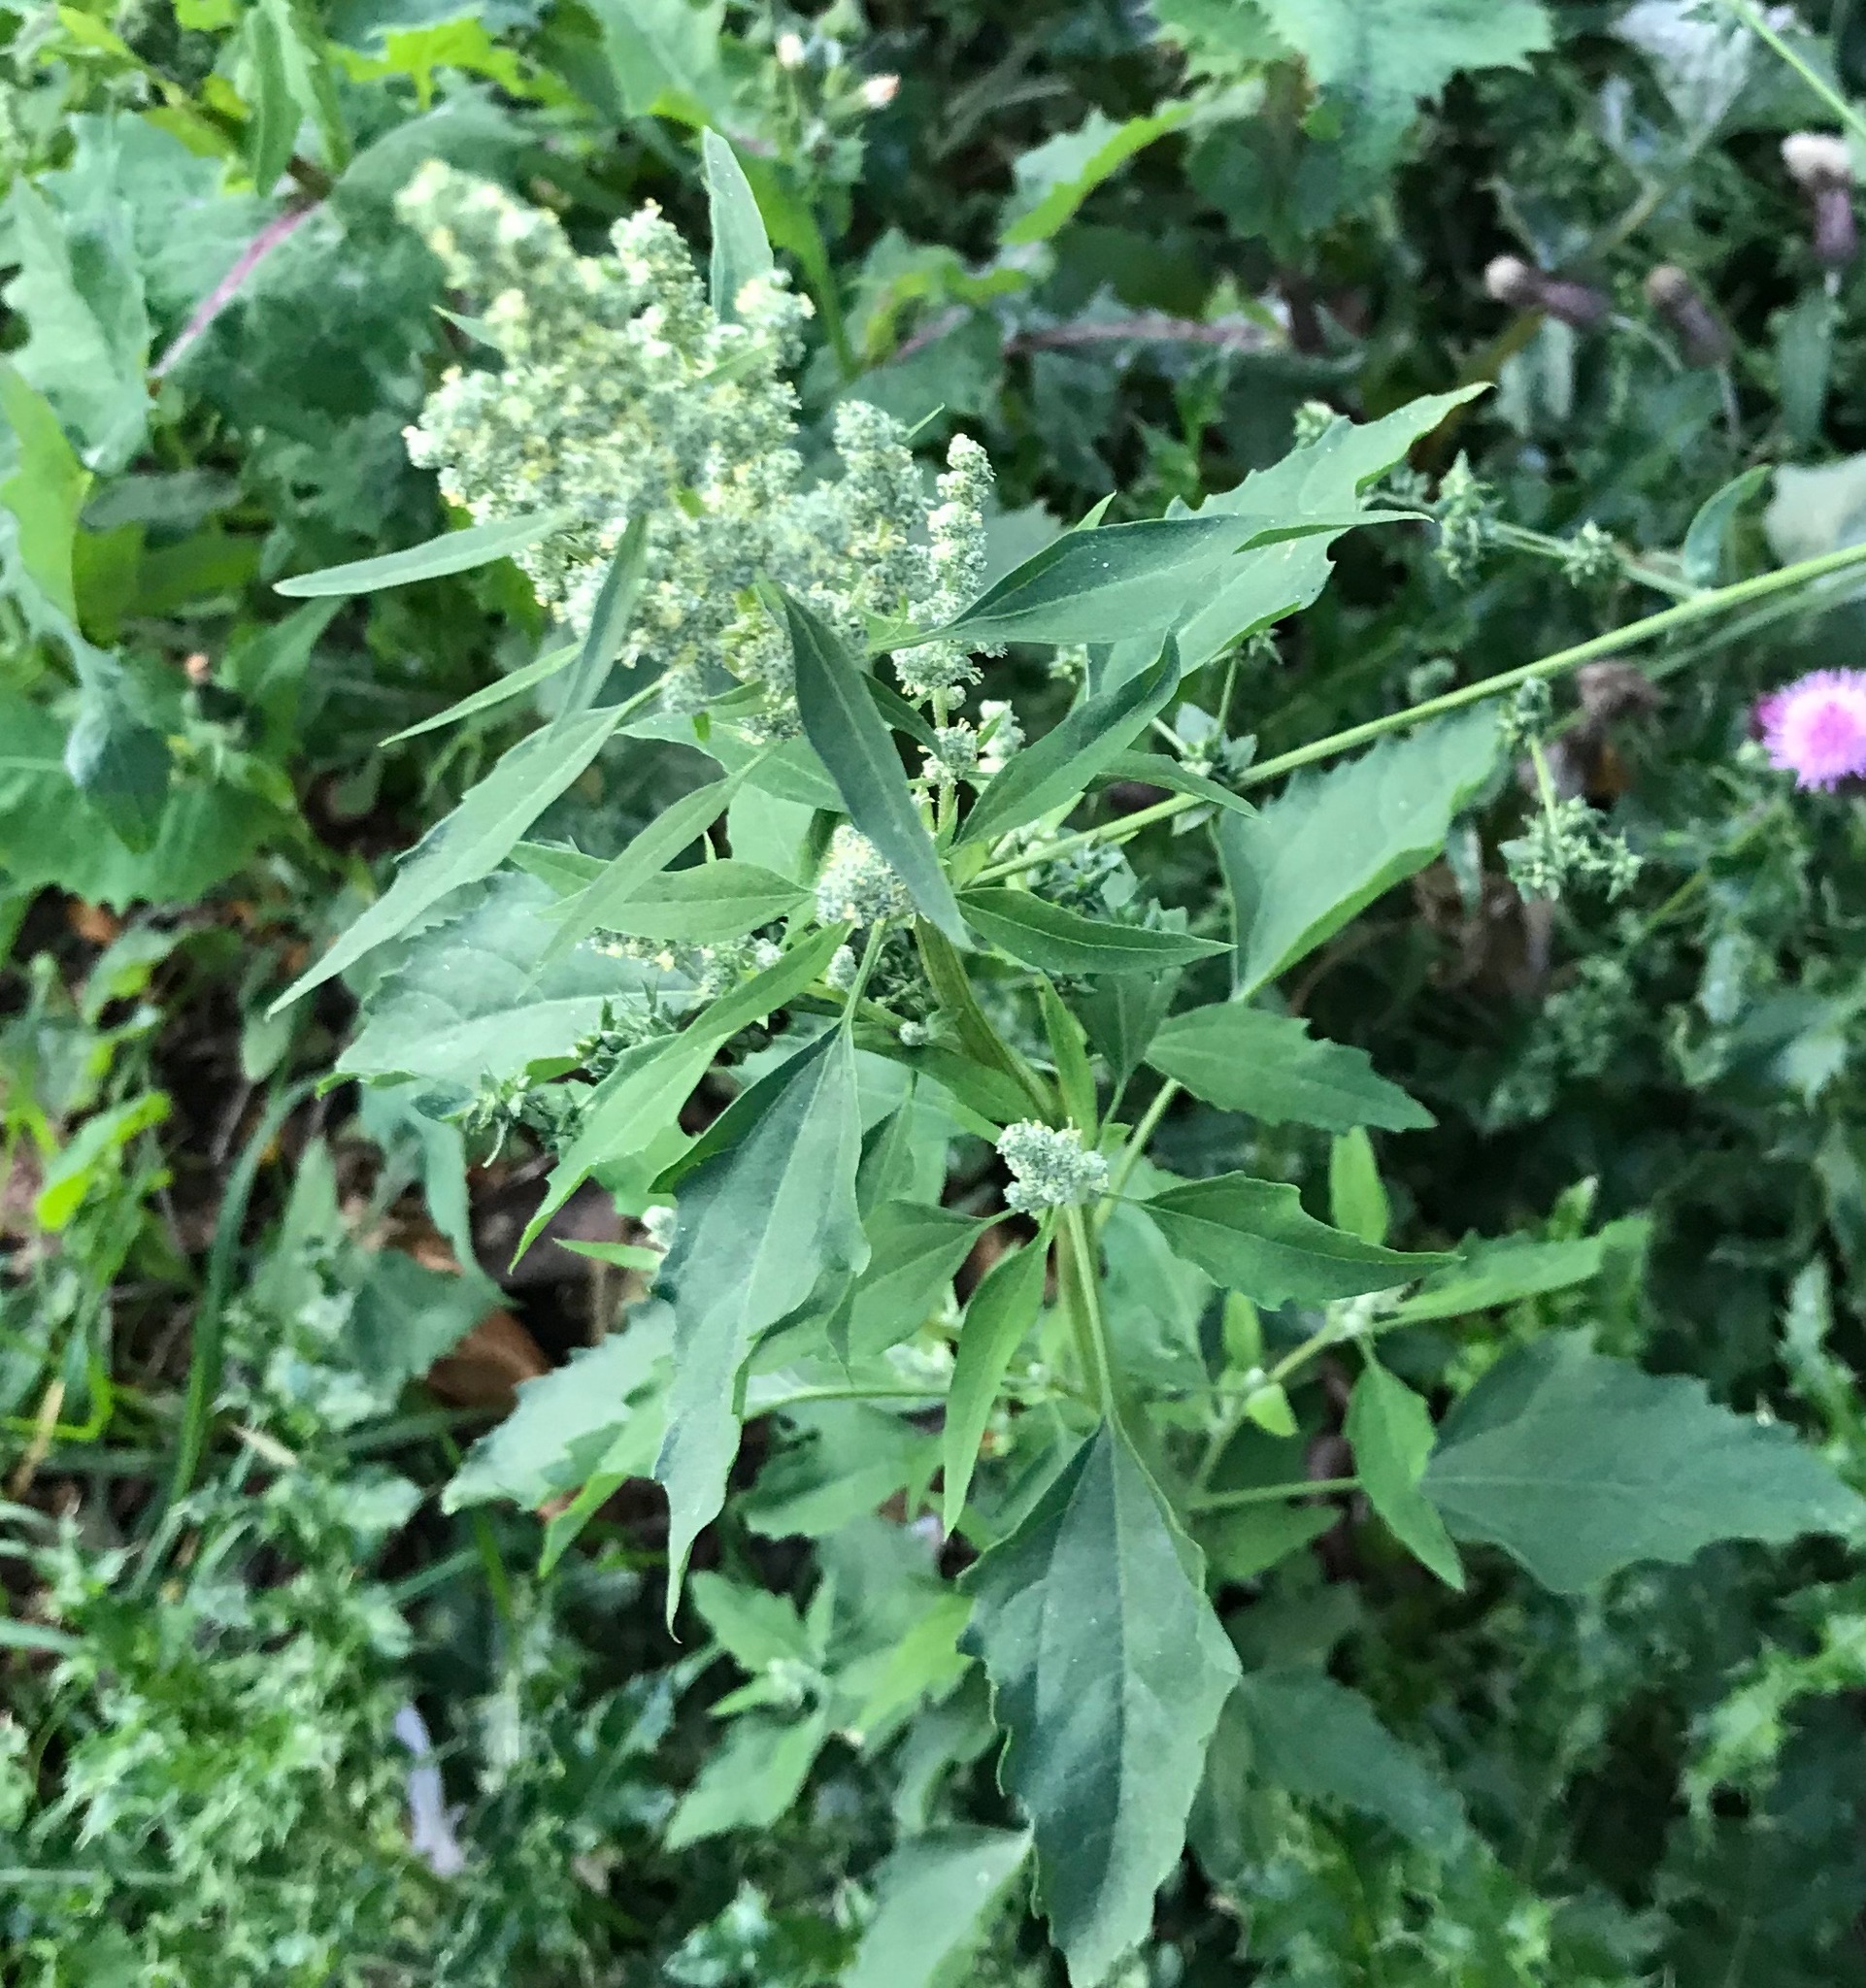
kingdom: Plantae
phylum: Tracheophyta
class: Magnoliopsida
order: Caryophyllales
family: Amaranthaceae
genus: Chenopodium
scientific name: Chenopodium album
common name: Fat-hen
